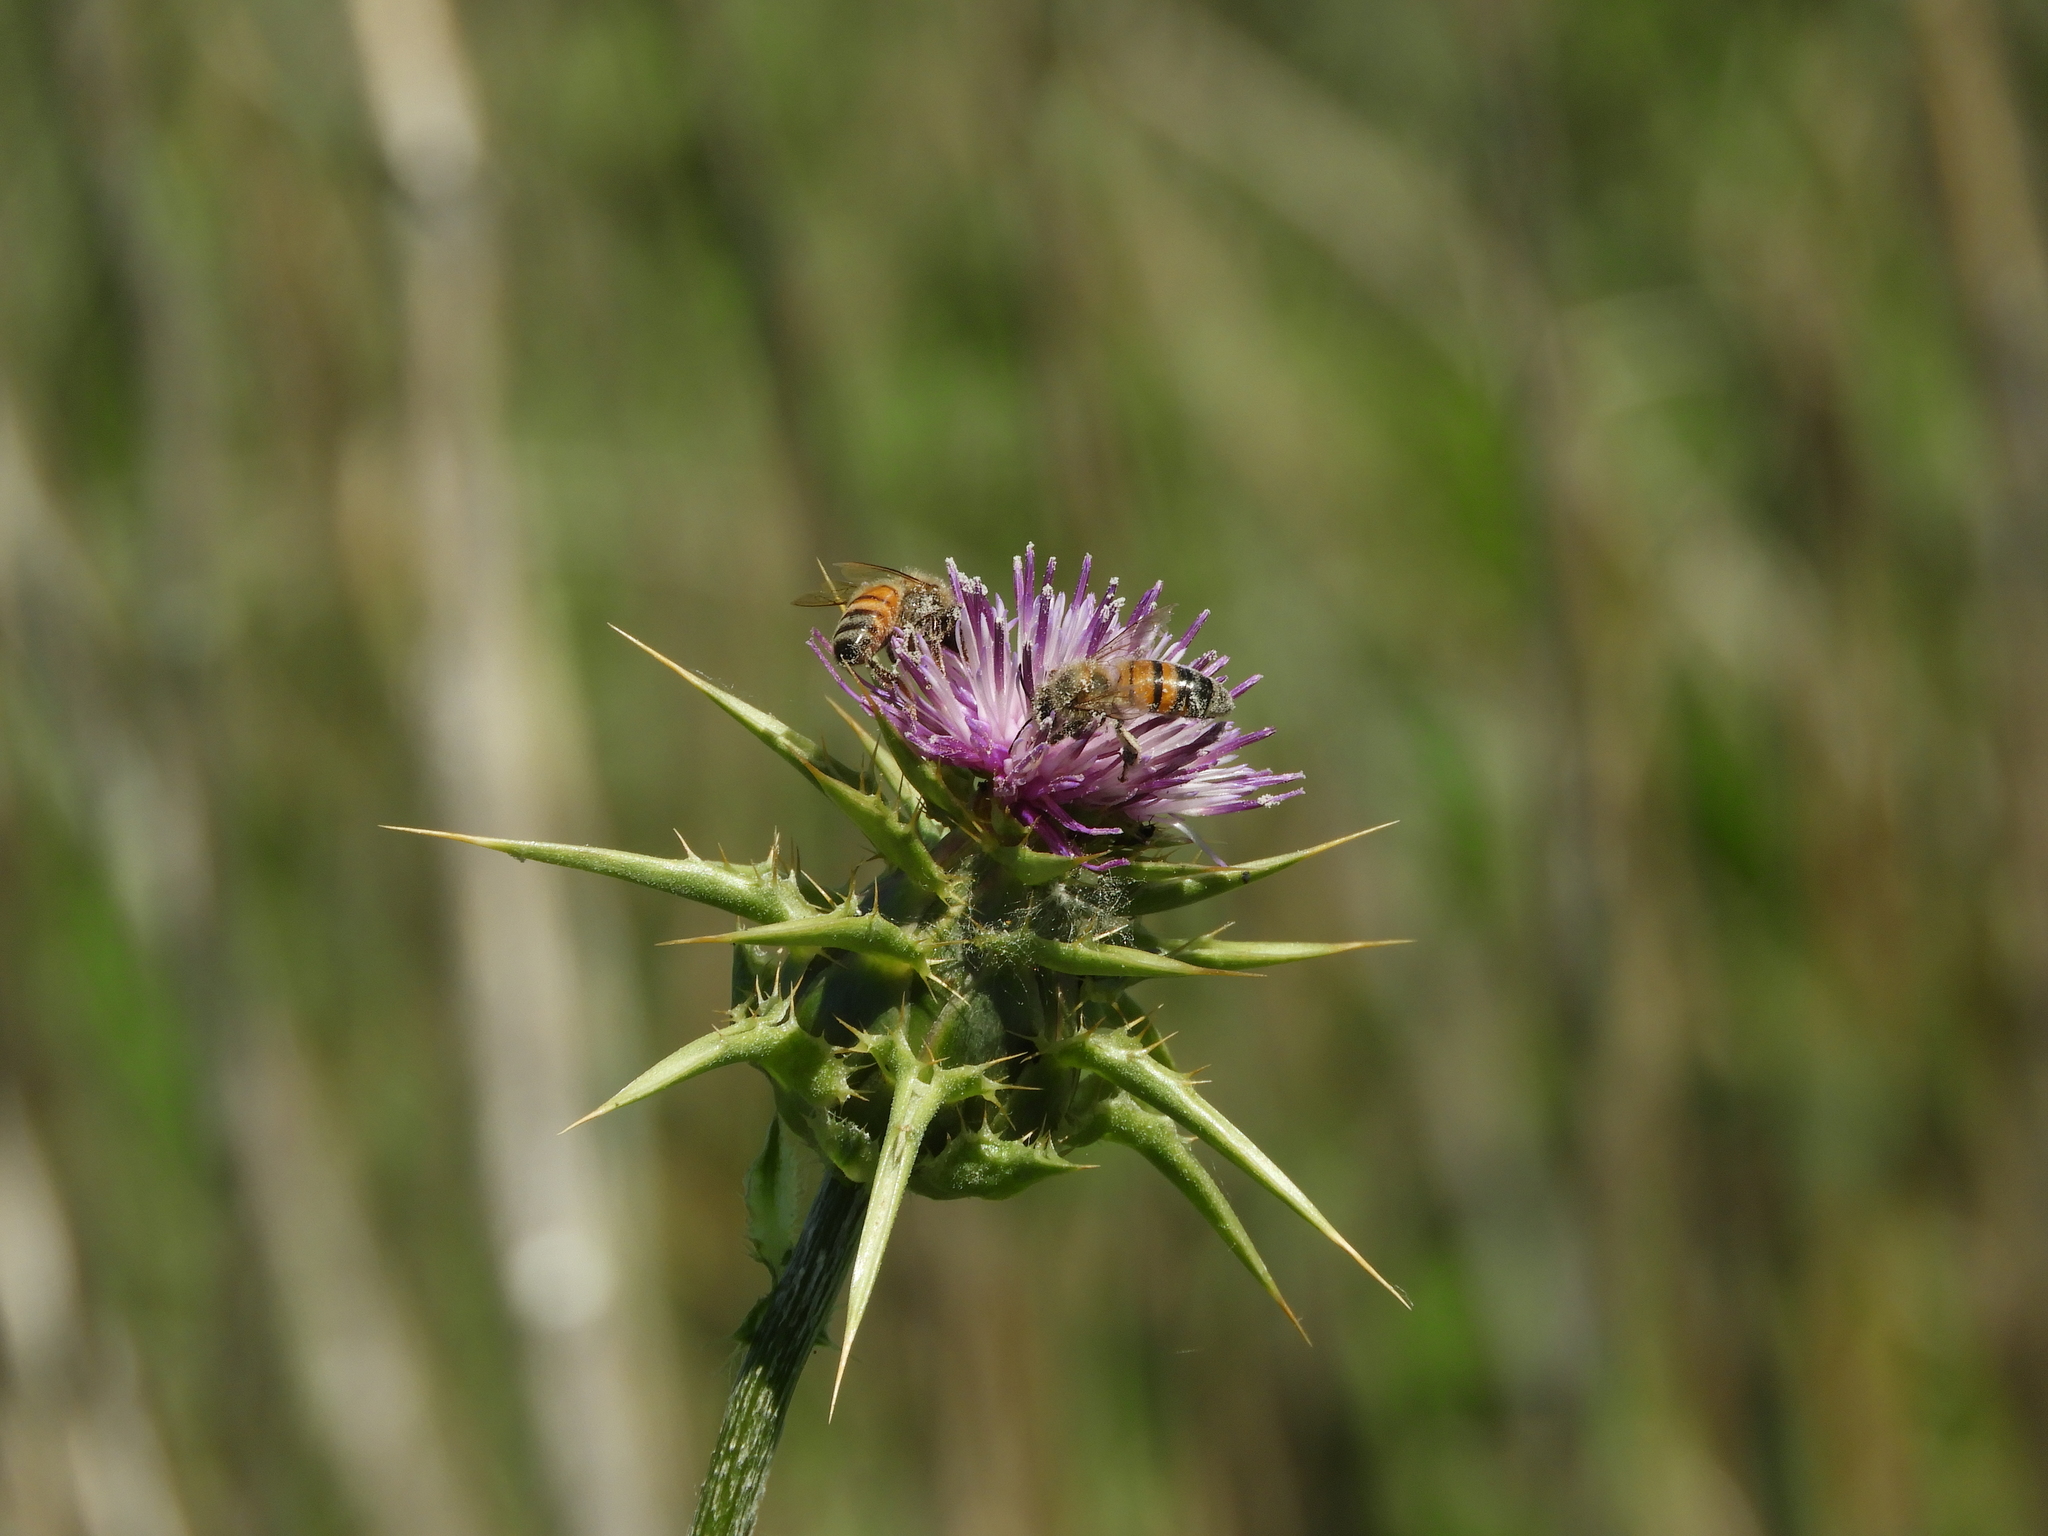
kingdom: Animalia
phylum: Arthropoda
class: Insecta
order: Hymenoptera
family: Apidae
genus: Apis
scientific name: Apis mellifera
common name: Honey bee
